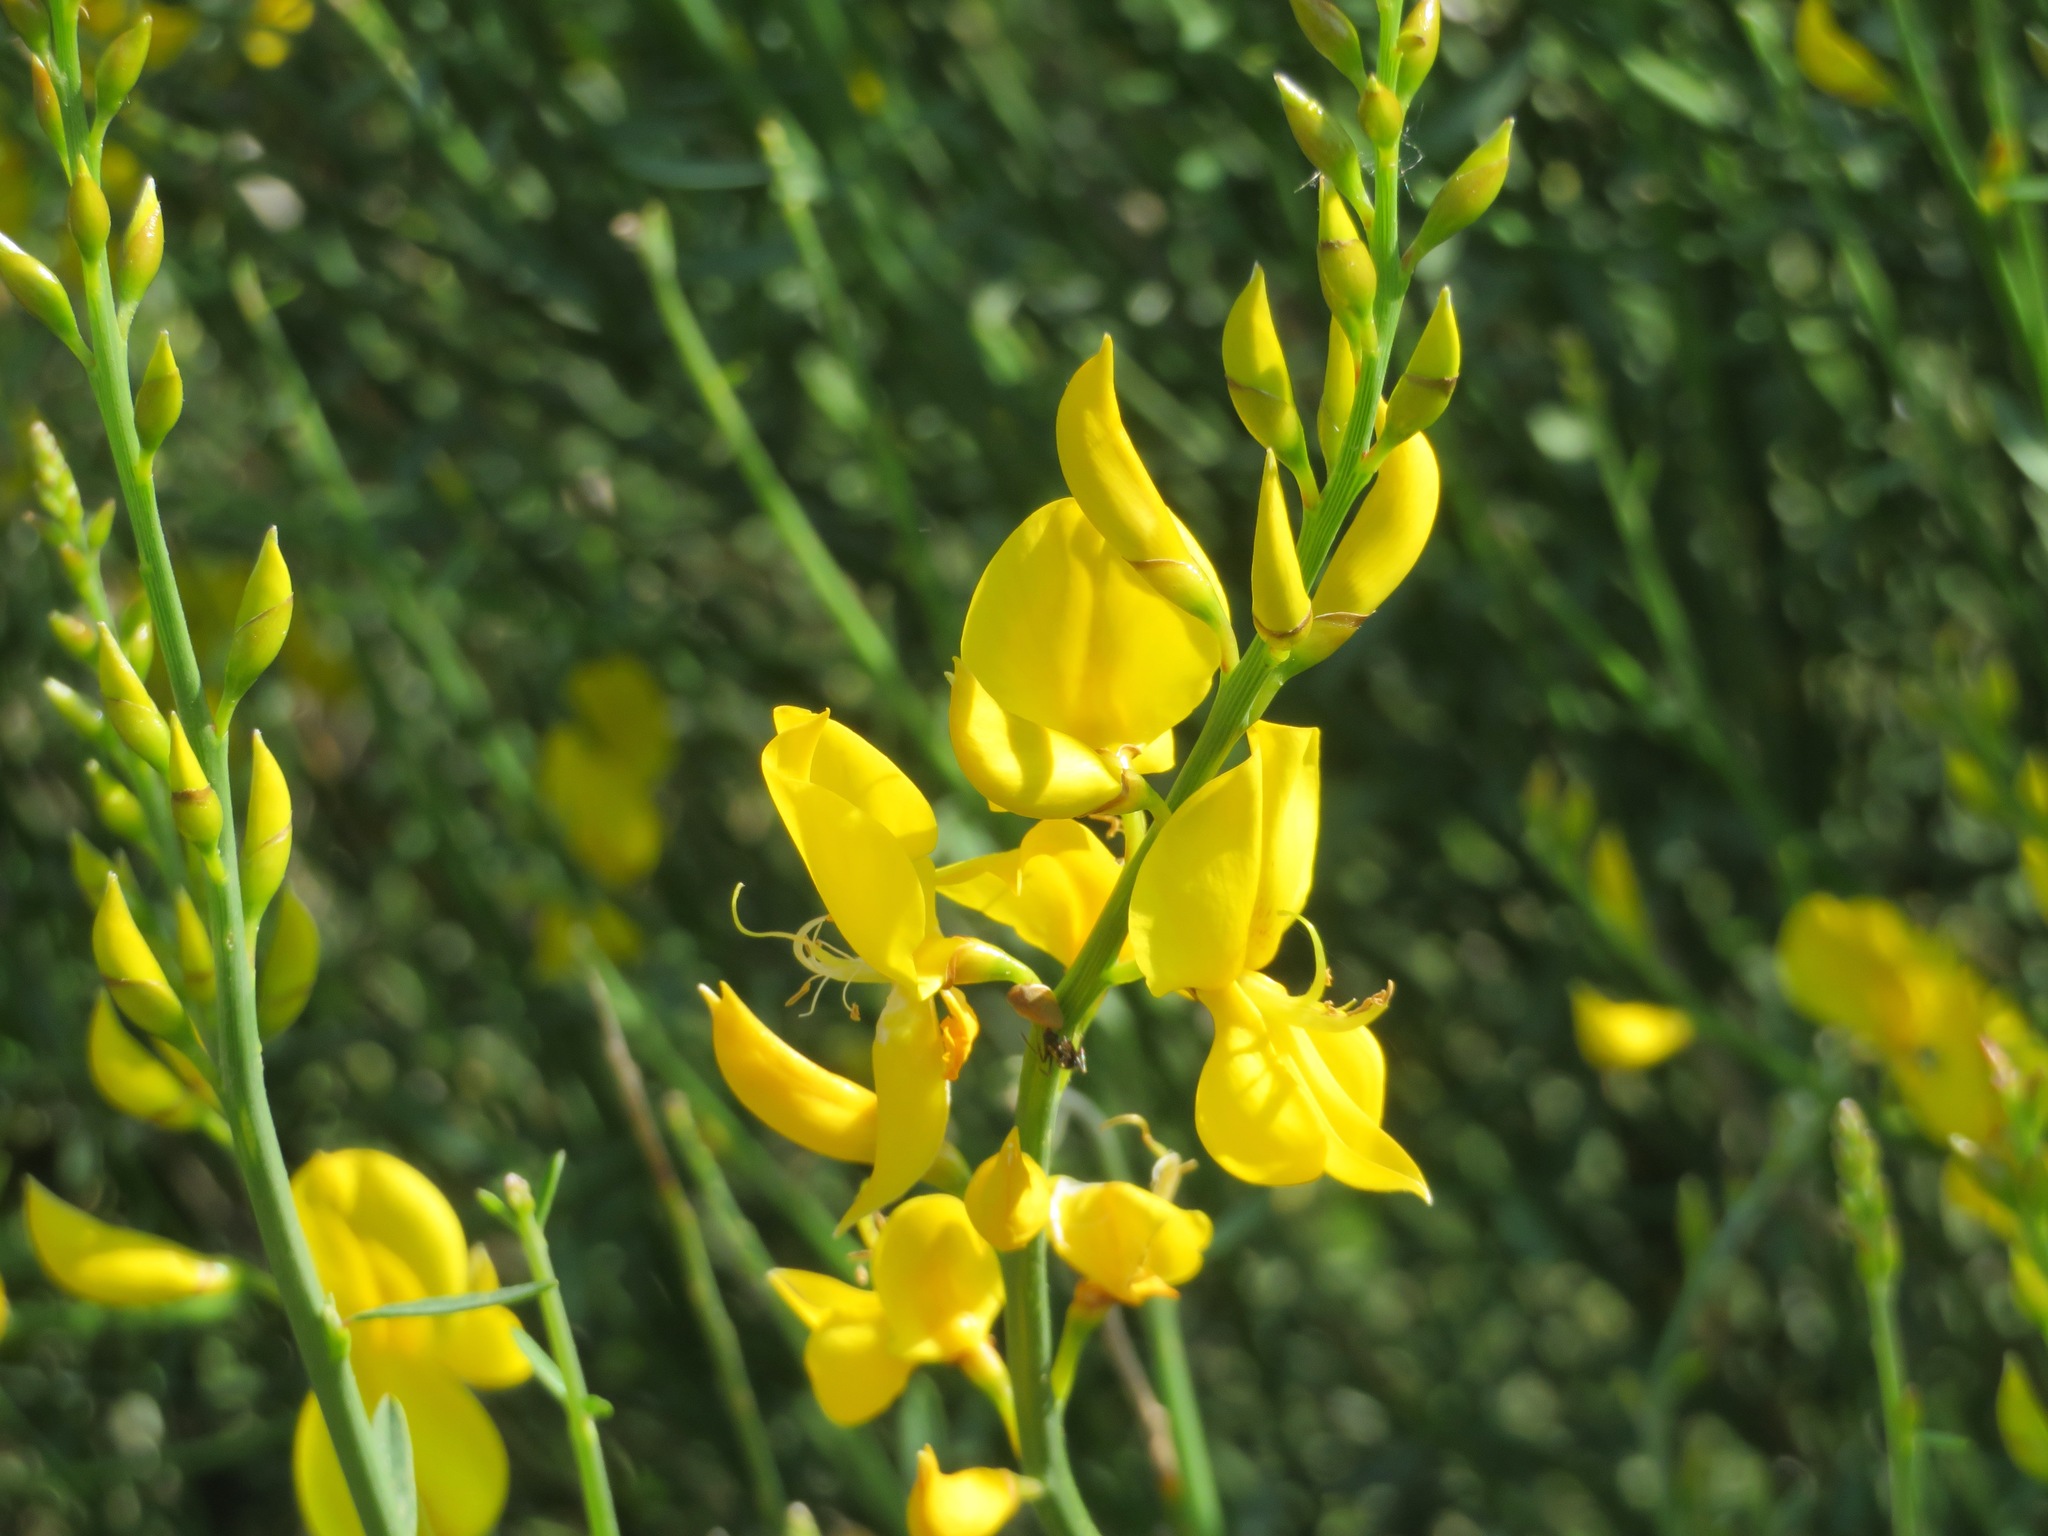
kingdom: Plantae
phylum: Tracheophyta
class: Magnoliopsida
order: Fabales
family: Fabaceae
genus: Spartium
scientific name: Spartium junceum
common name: Spanish broom
